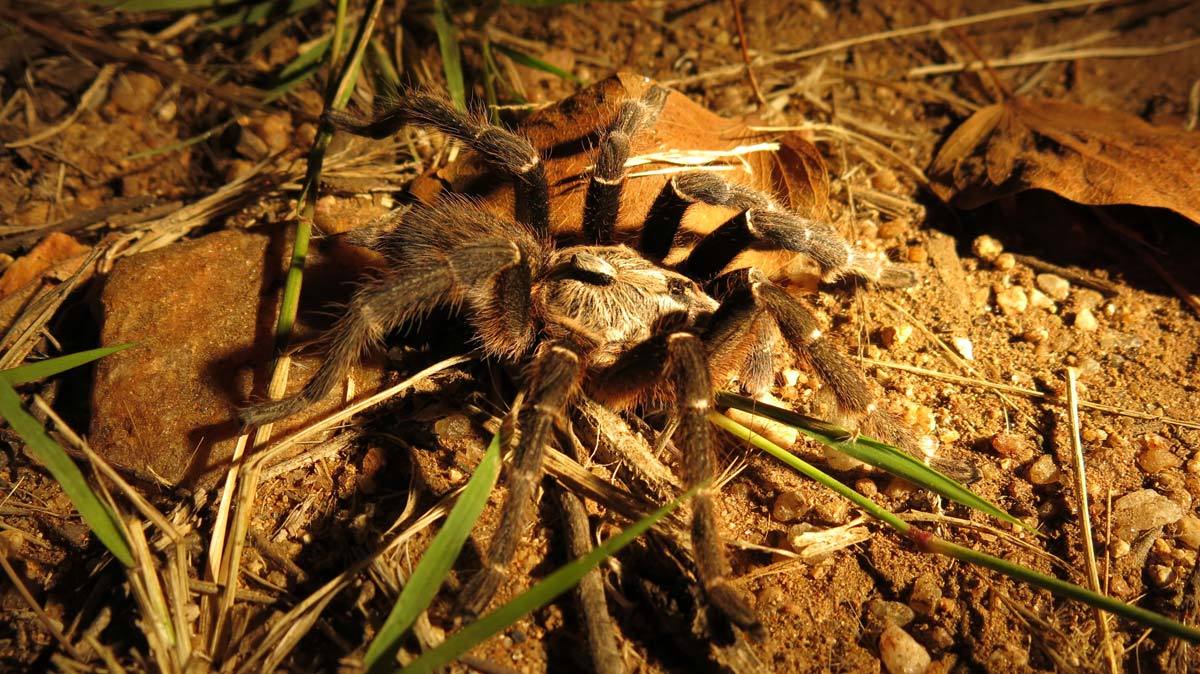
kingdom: Animalia
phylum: Arthropoda
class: Arachnida
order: Araneae
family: Theraphosidae
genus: Ceratogyrus
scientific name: Ceratogyrus darlingi
